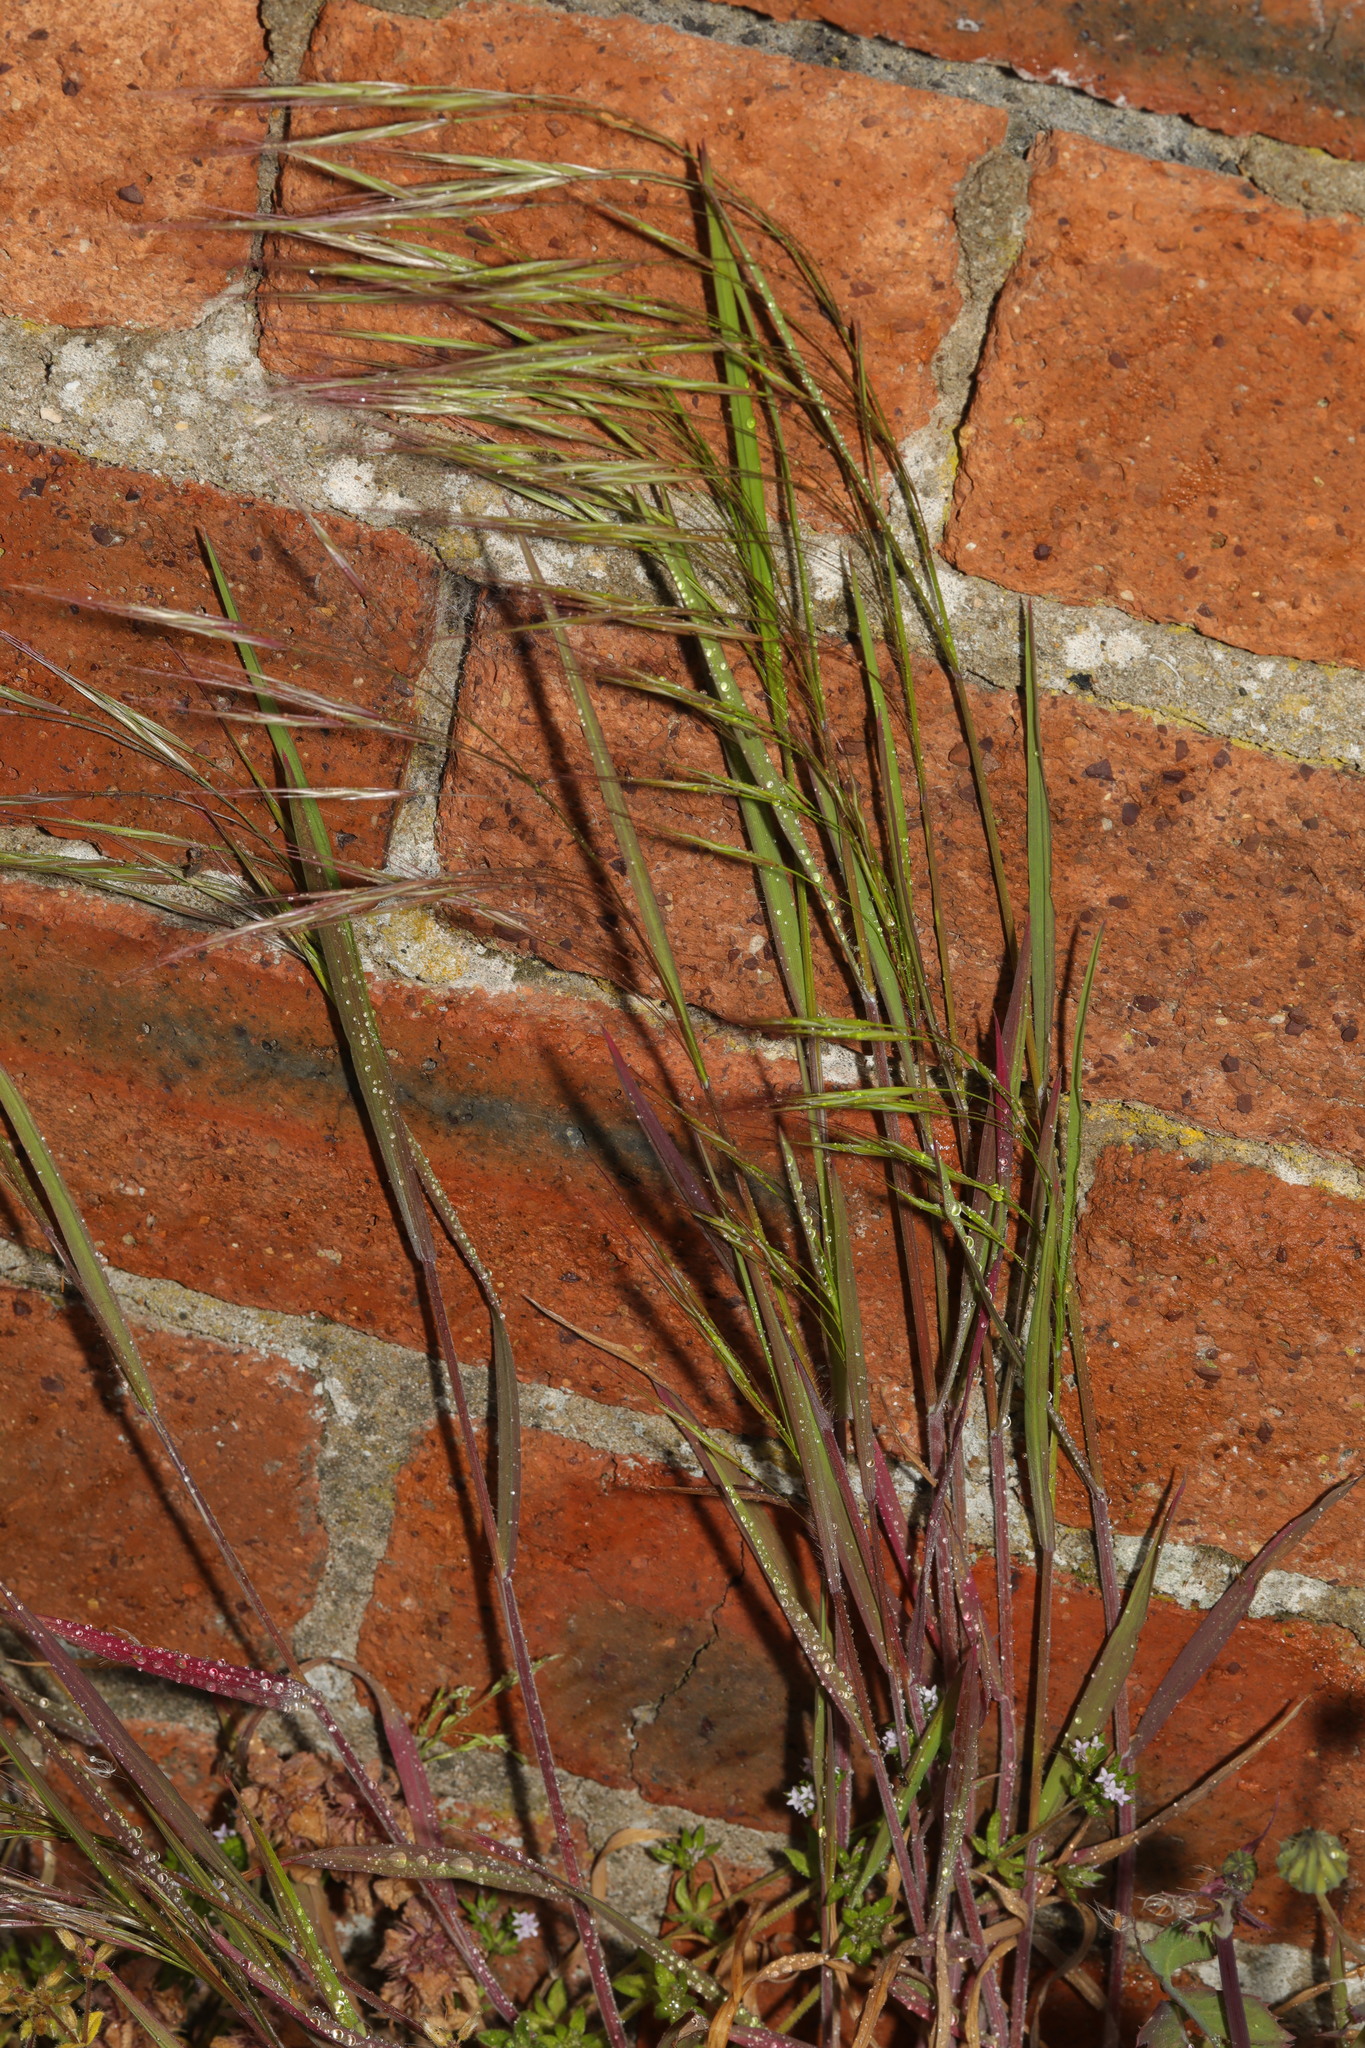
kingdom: Plantae
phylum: Tracheophyta
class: Liliopsida
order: Poales
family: Poaceae
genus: Bromus
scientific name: Bromus sterilis
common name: Poverty brome
